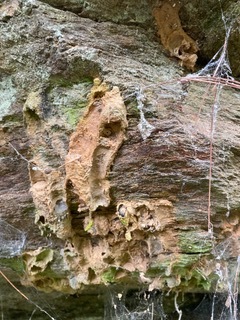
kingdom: Animalia
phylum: Arthropoda
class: Insecta
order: Hymenoptera
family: Crabronidae
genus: Trypoxylon
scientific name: Trypoxylon politum
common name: Organ-pipe mud-dauber wasp
